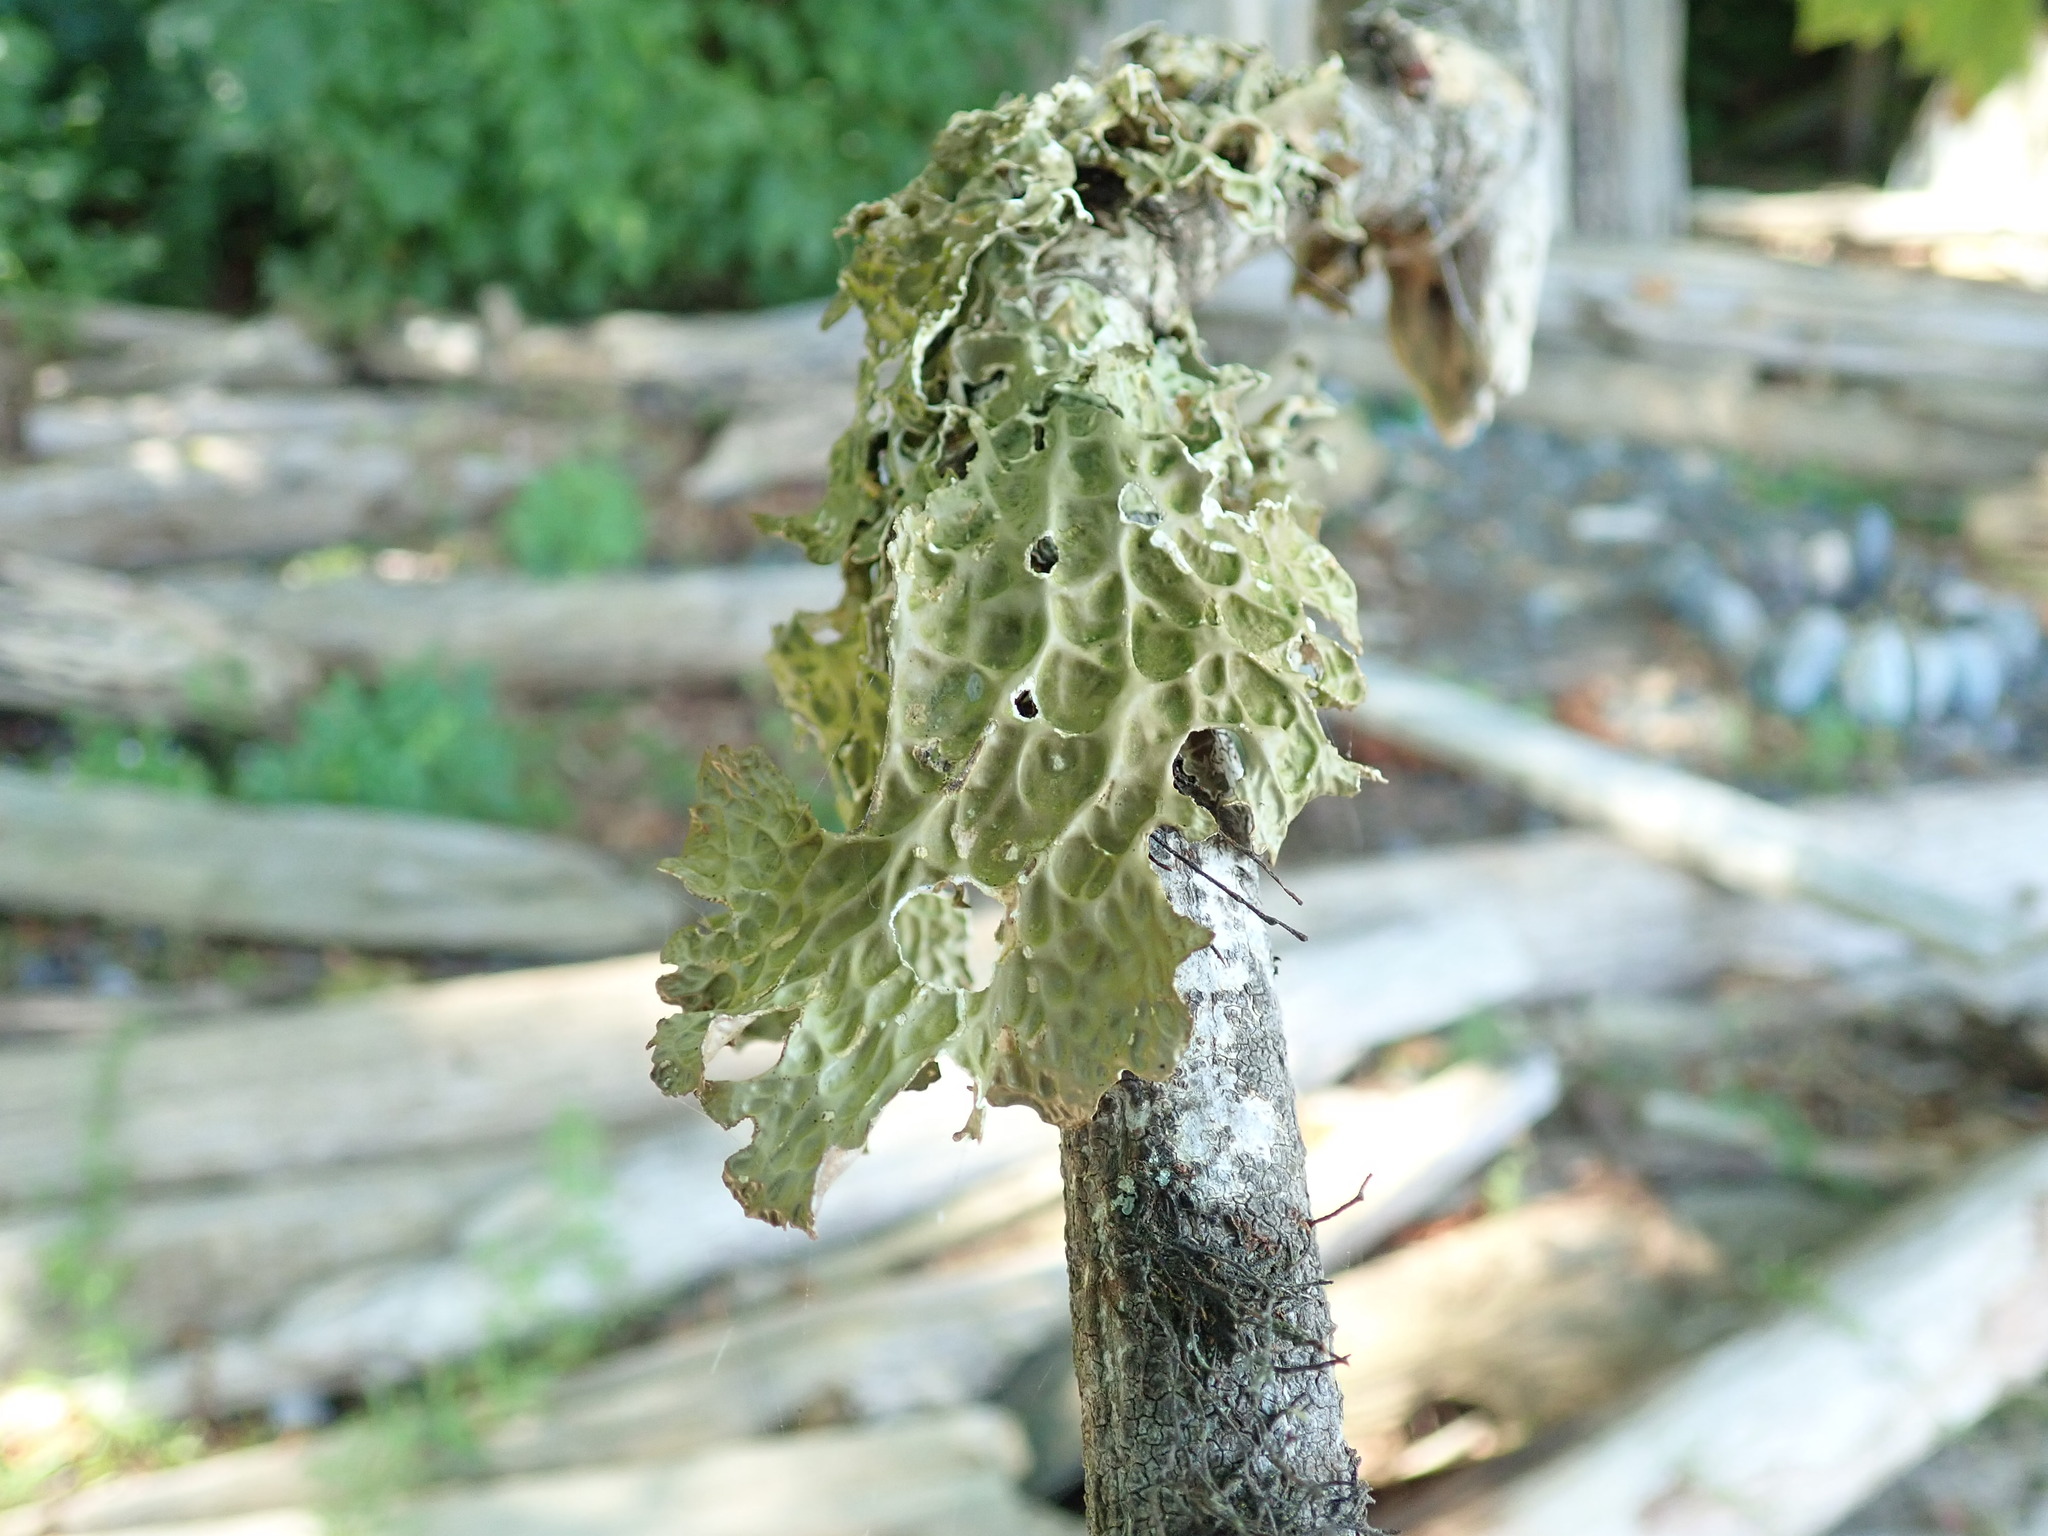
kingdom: Fungi
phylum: Ascomycota
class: Lecanoromycetes
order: Peltigerales
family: Lobariaceae
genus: Lobaria
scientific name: Lobaria pulmonaria
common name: Lungwort
